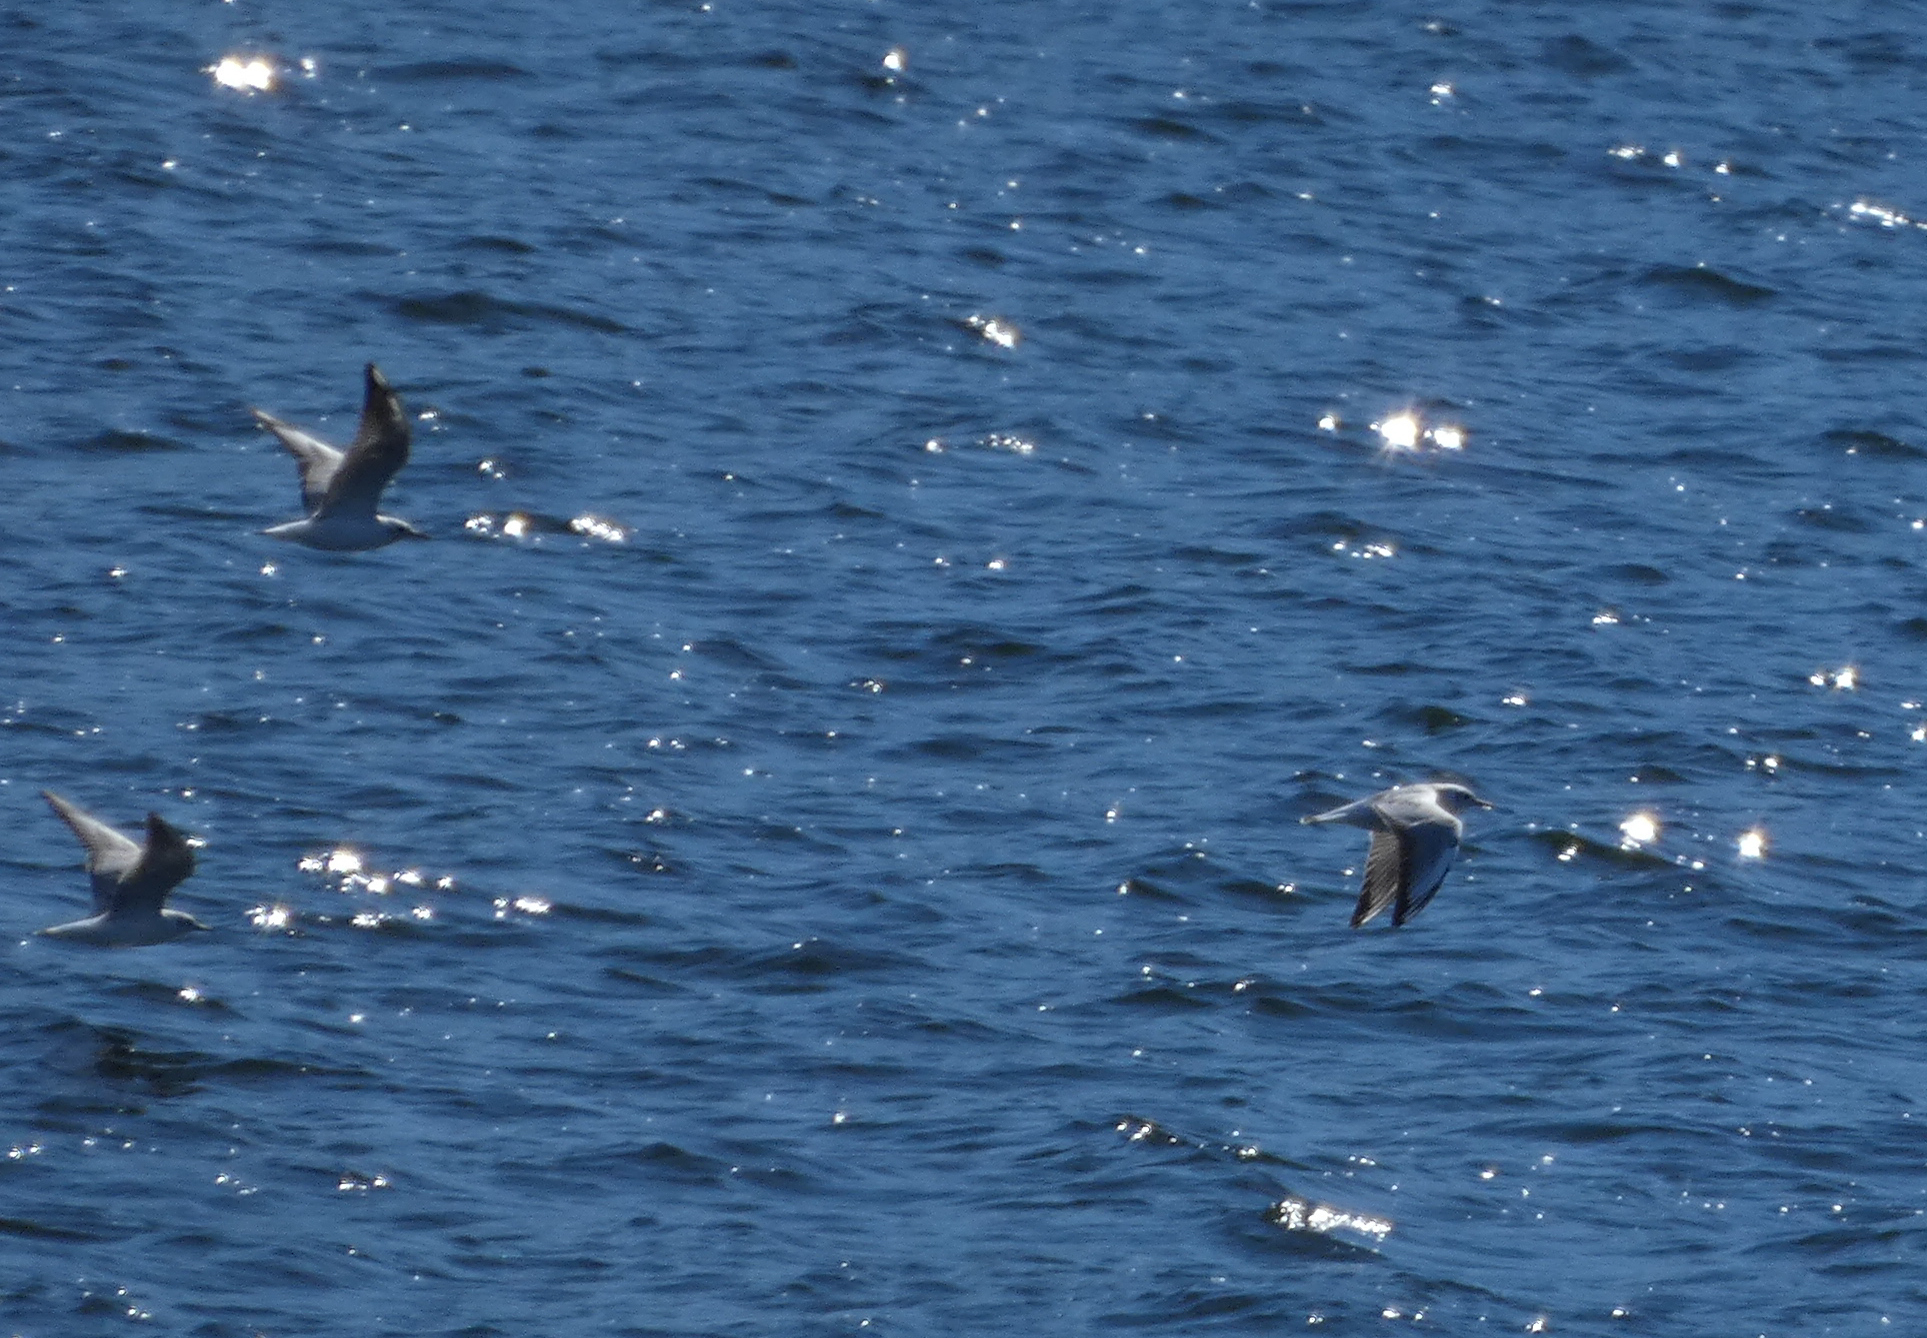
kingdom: Animalia
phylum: Chordata
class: Aves
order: Charadriiformes
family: Laridae
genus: Chroicocephalus
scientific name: Chroicocephalus ridibundus
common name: Black-headed gull
